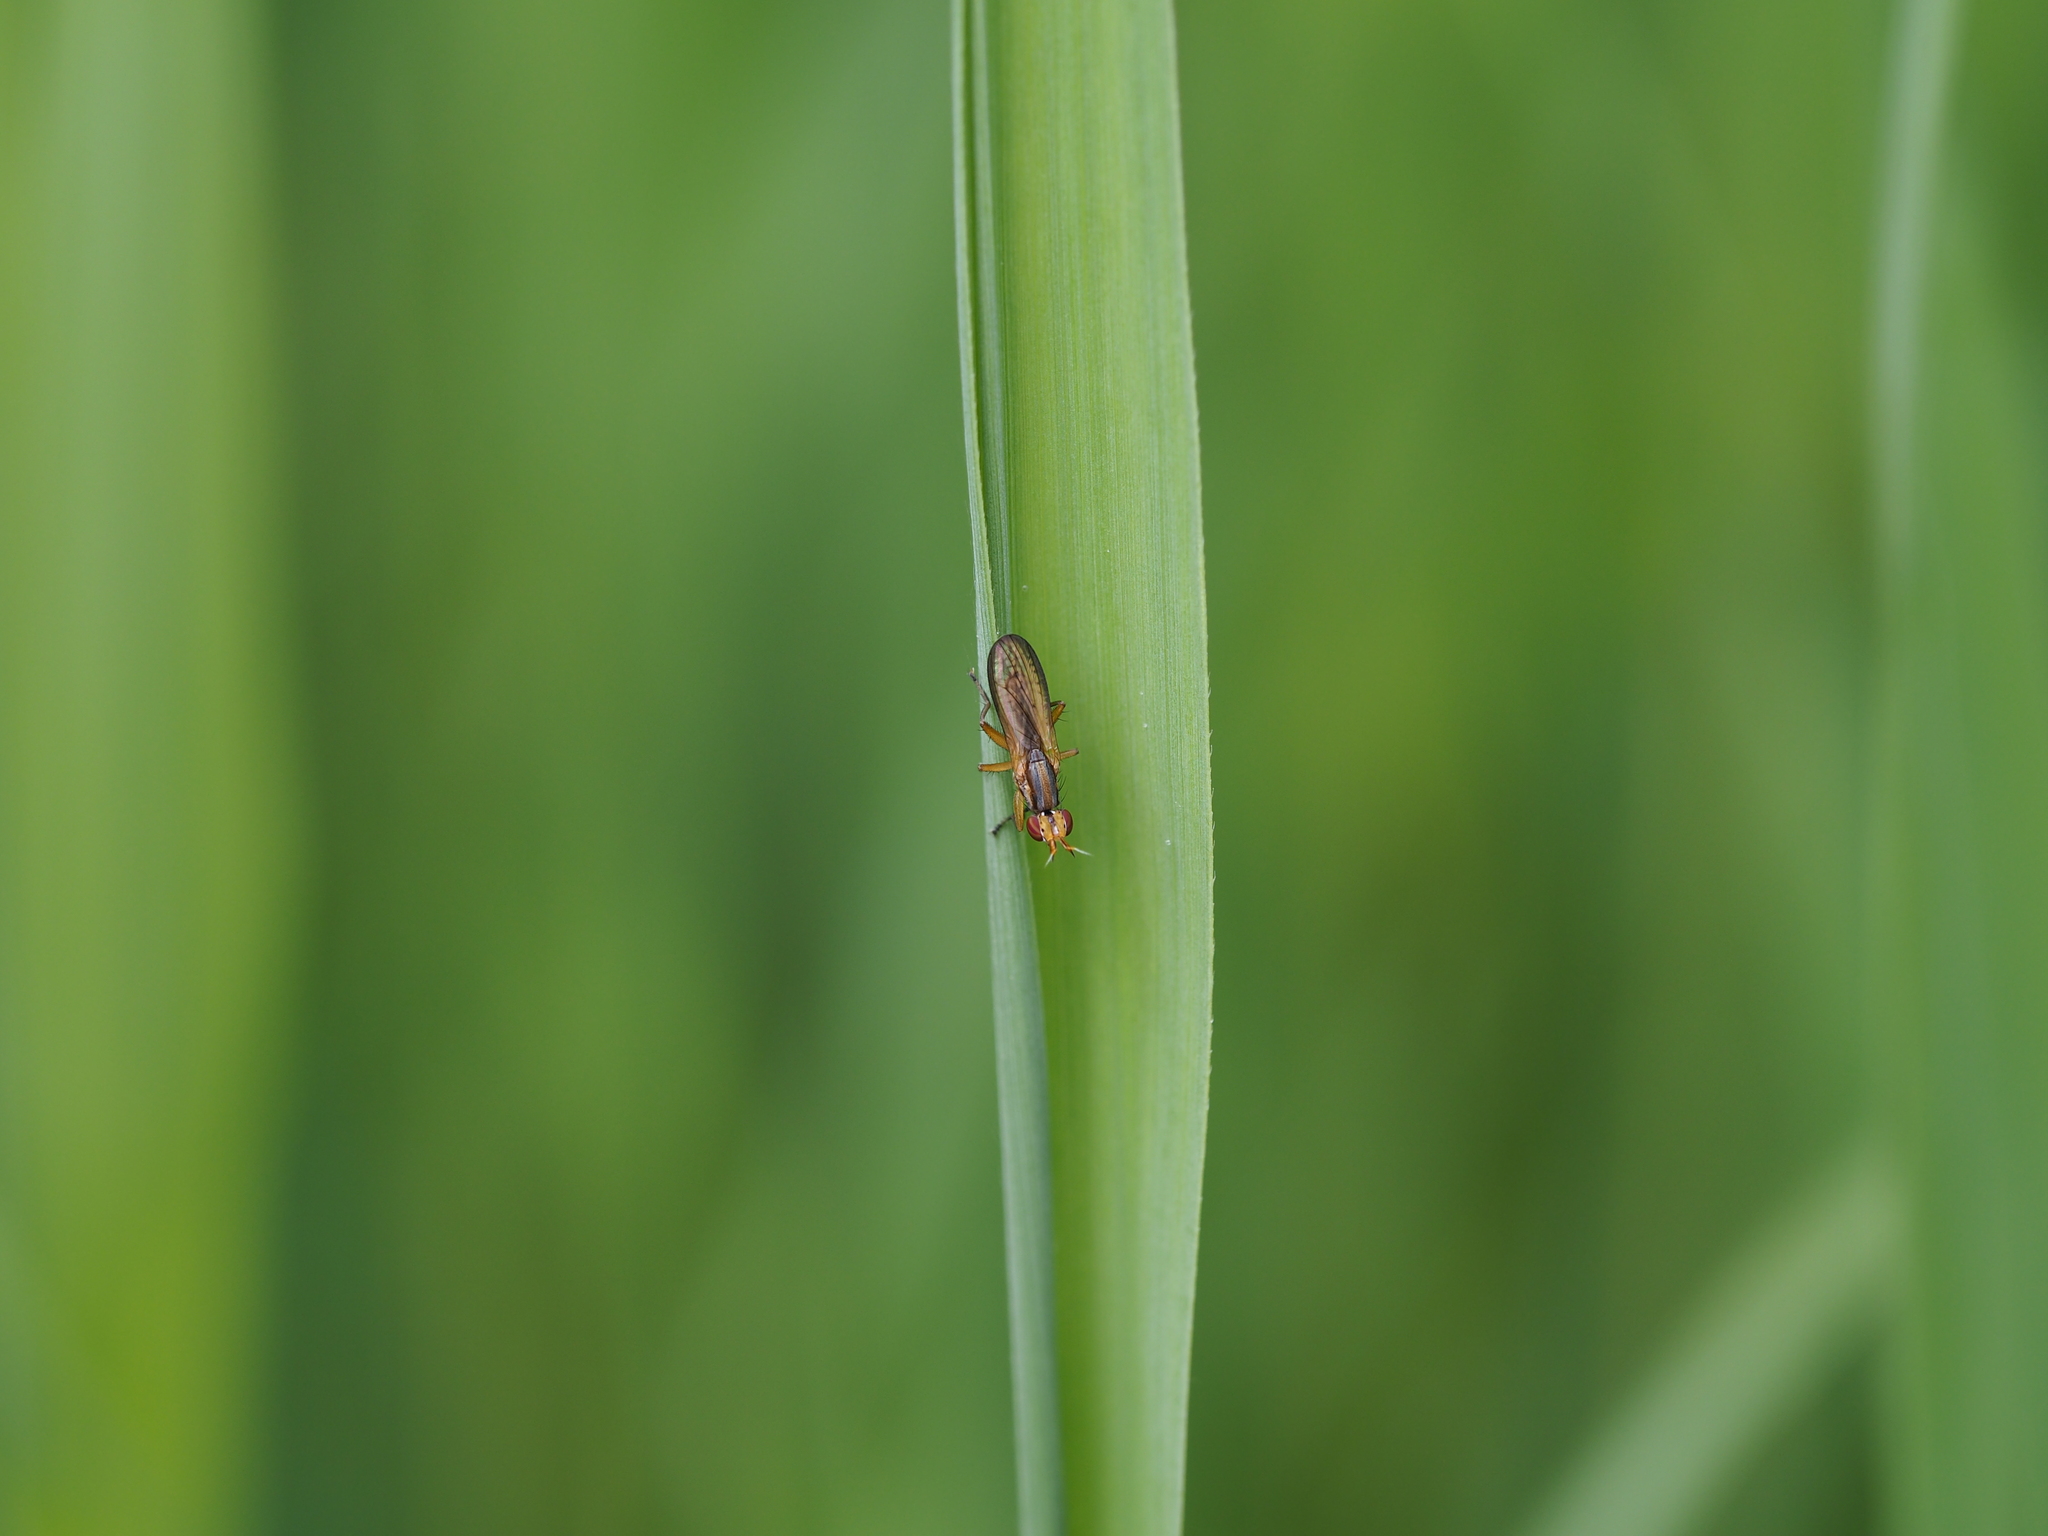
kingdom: Animalia
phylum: Arthropoda
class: Insecta
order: Diptera
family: Sciomyzidae
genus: Limnia
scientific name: Limnia unguicornis
